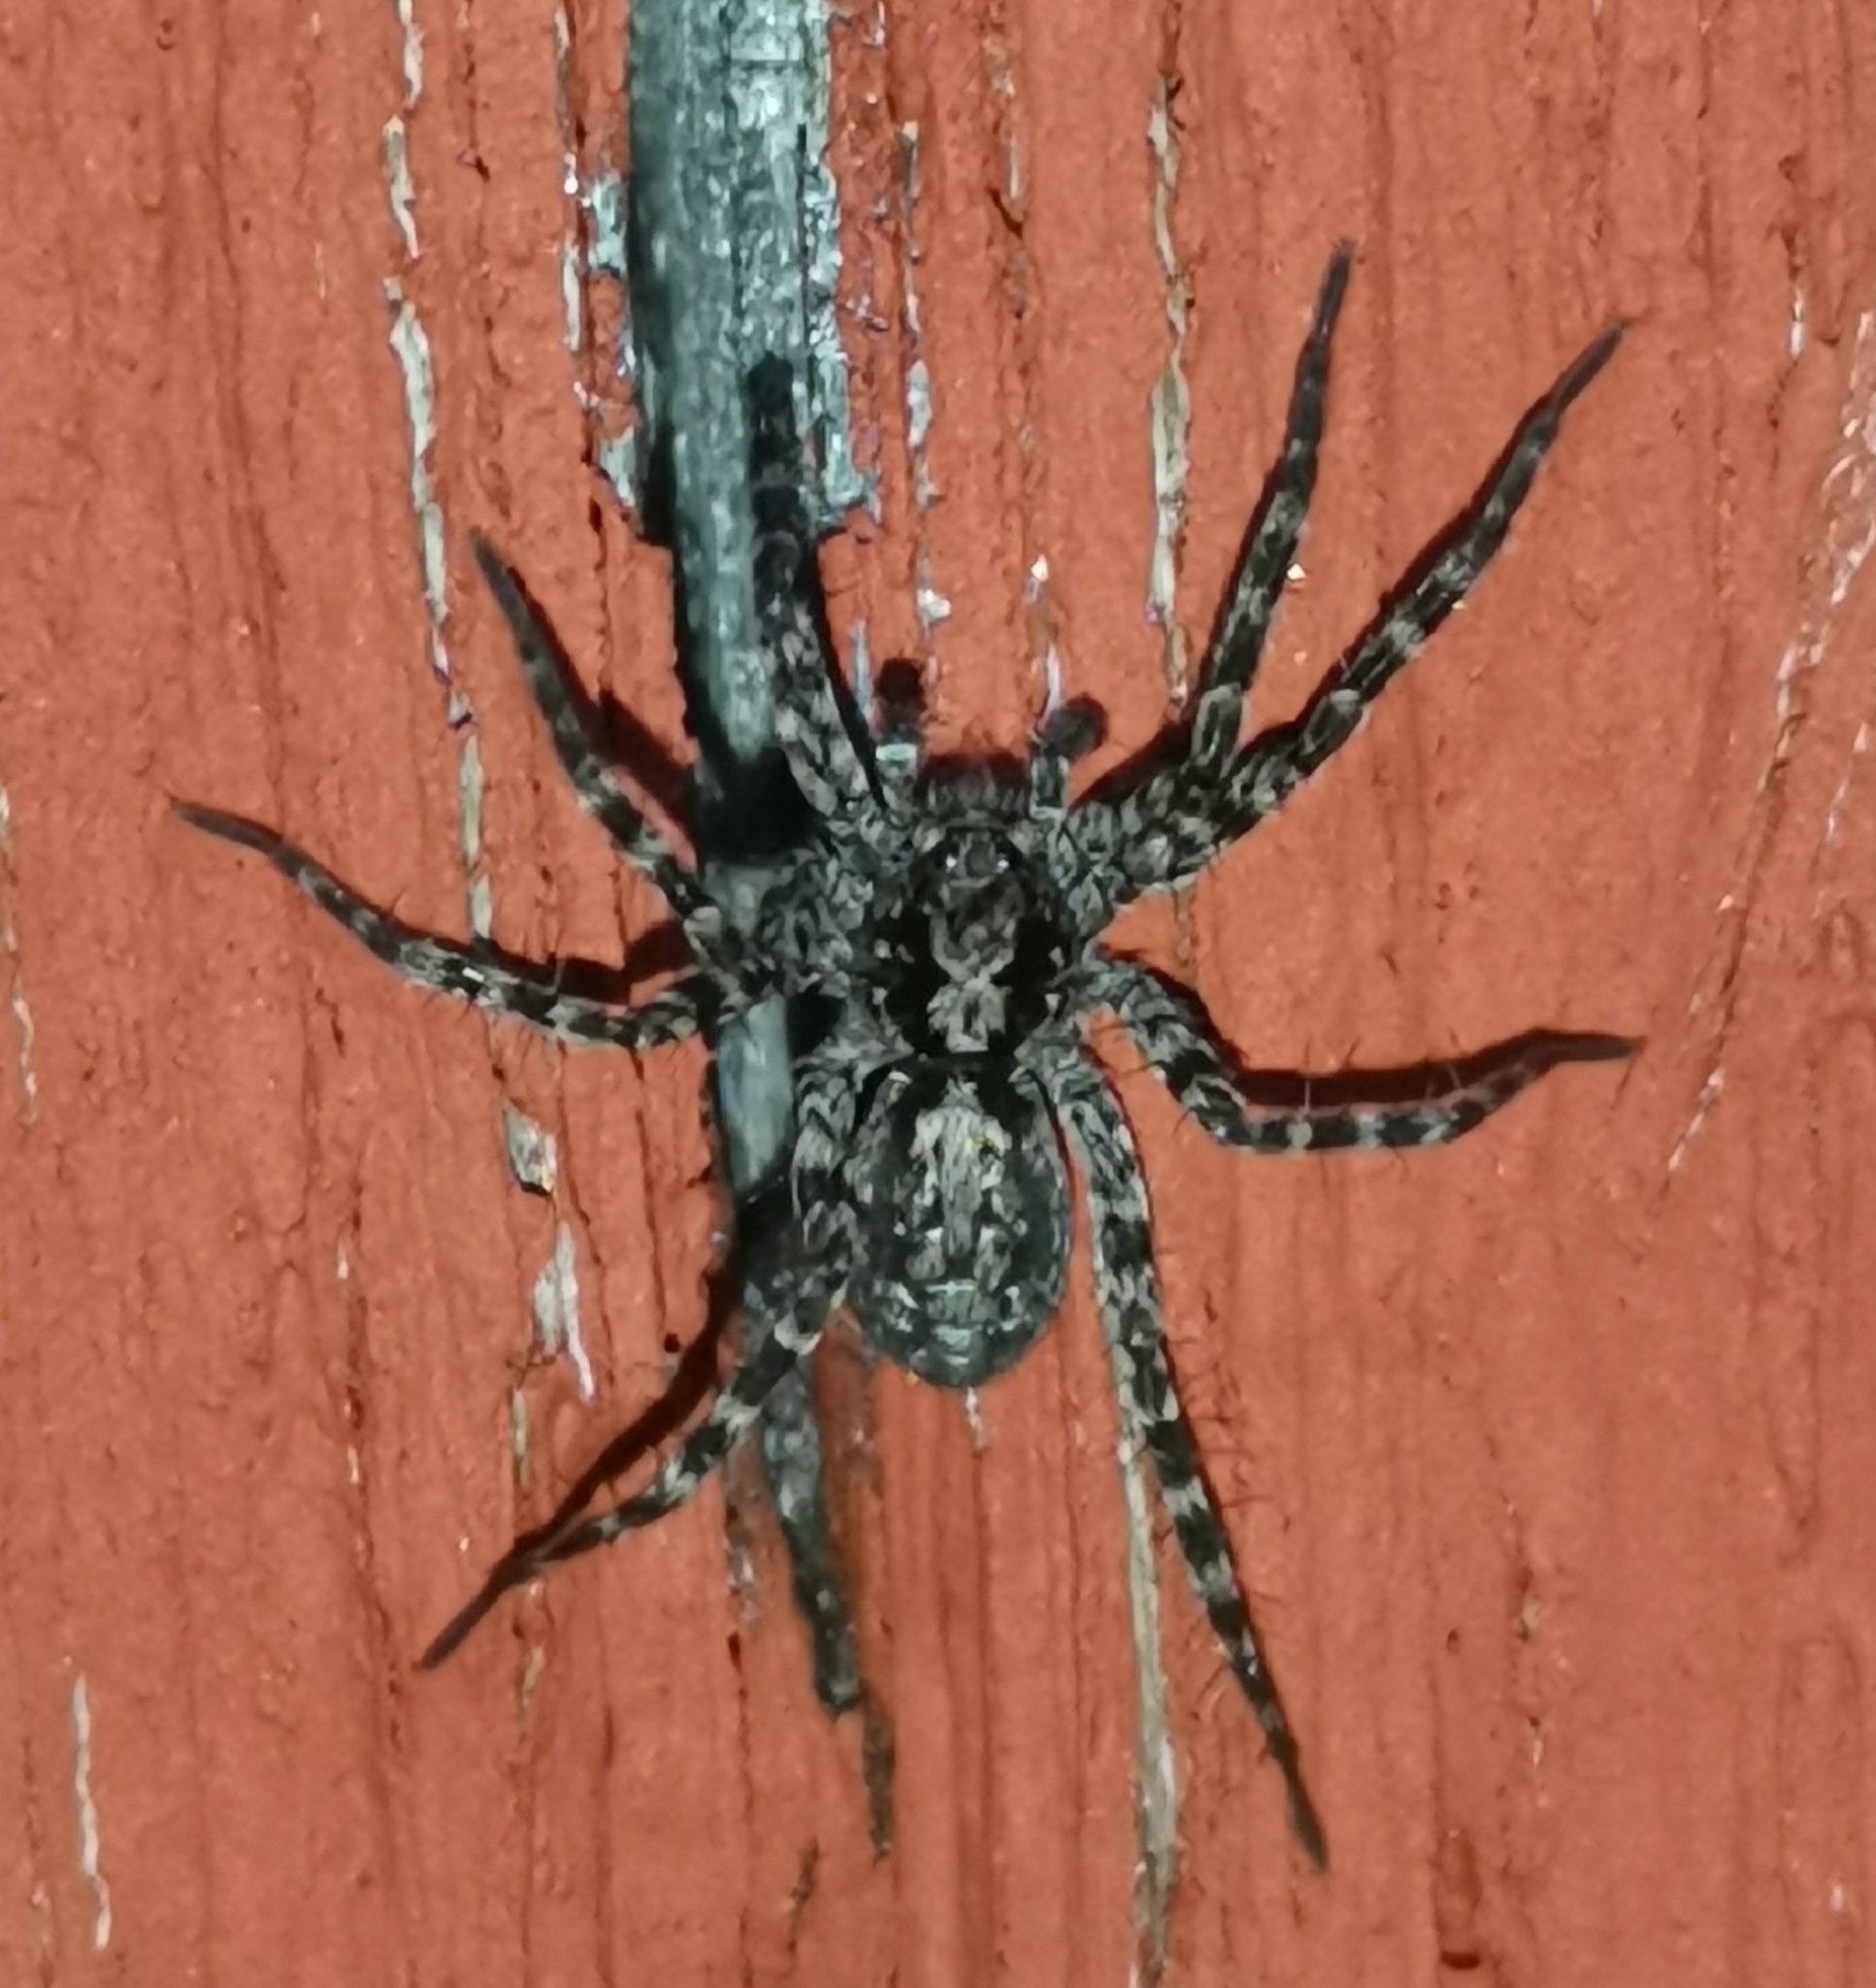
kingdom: Animalia
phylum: Arthropoda
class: Arachnida
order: Araneae
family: Lycosidae
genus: Acantholycosa
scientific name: Acantholycosa lignaria
